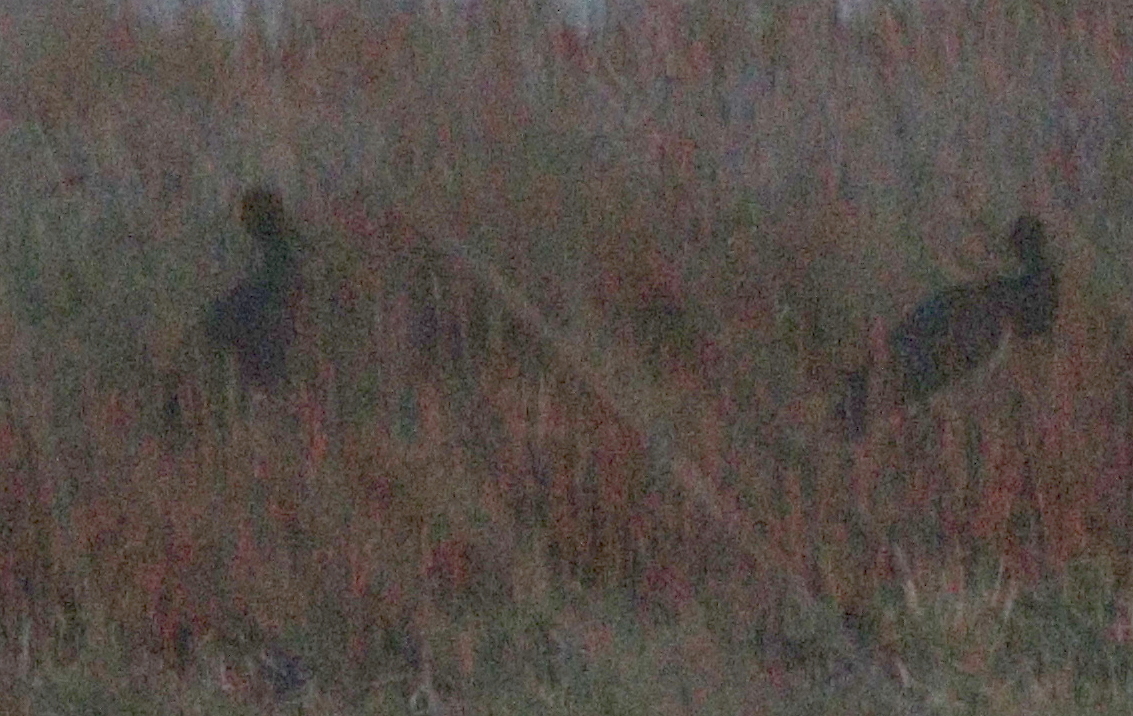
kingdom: Animalia
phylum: Chordata
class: Aves
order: Ciconiiformes
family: Ciconiidae
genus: Ciconia
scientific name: Ciconia nigra
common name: Black stork
